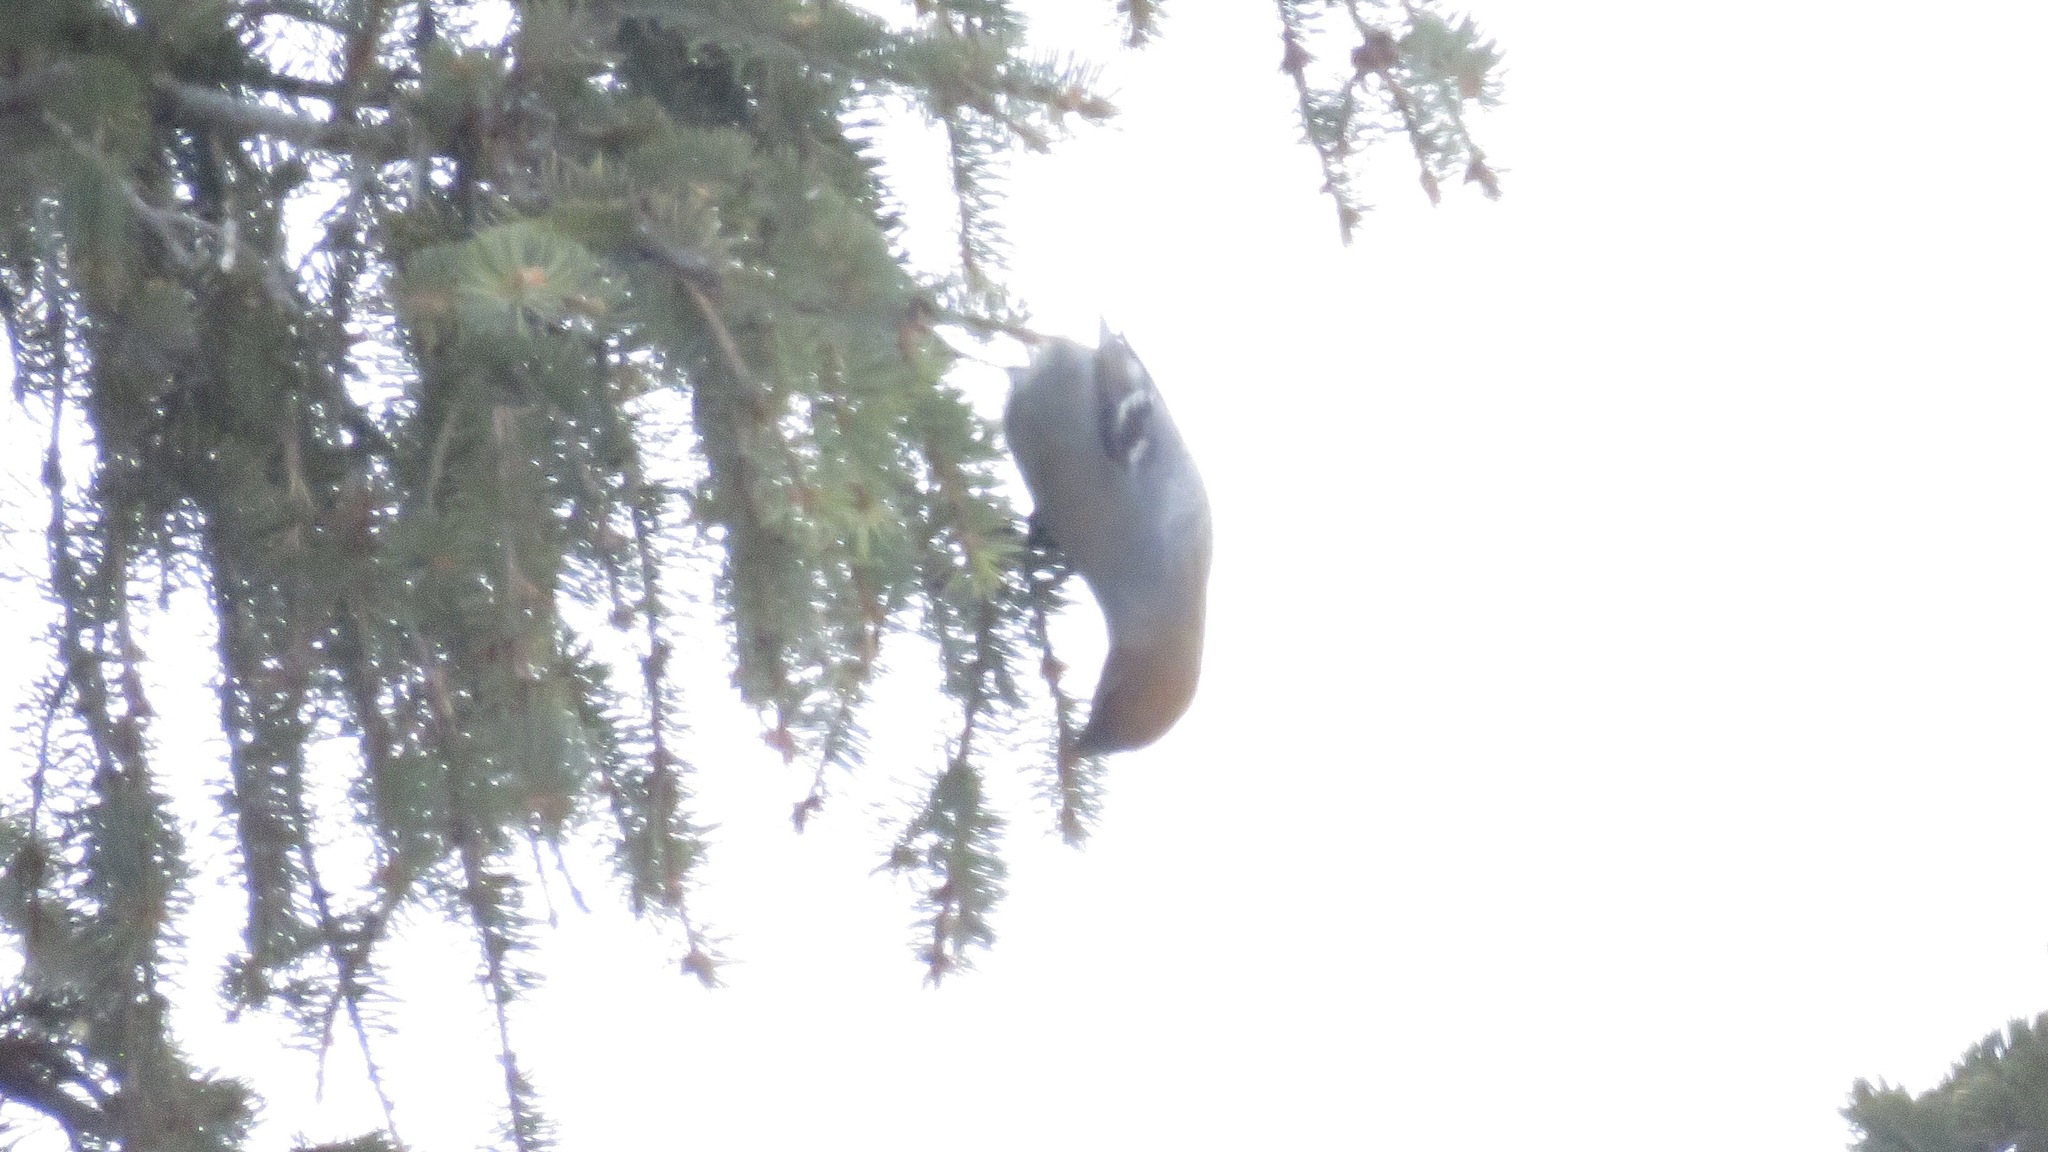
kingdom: Animalia
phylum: Chordata
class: Aves
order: Passeriformes
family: Fringillidae
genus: Pinicola
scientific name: Pinicola enucleator
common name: Pine grosbeak
